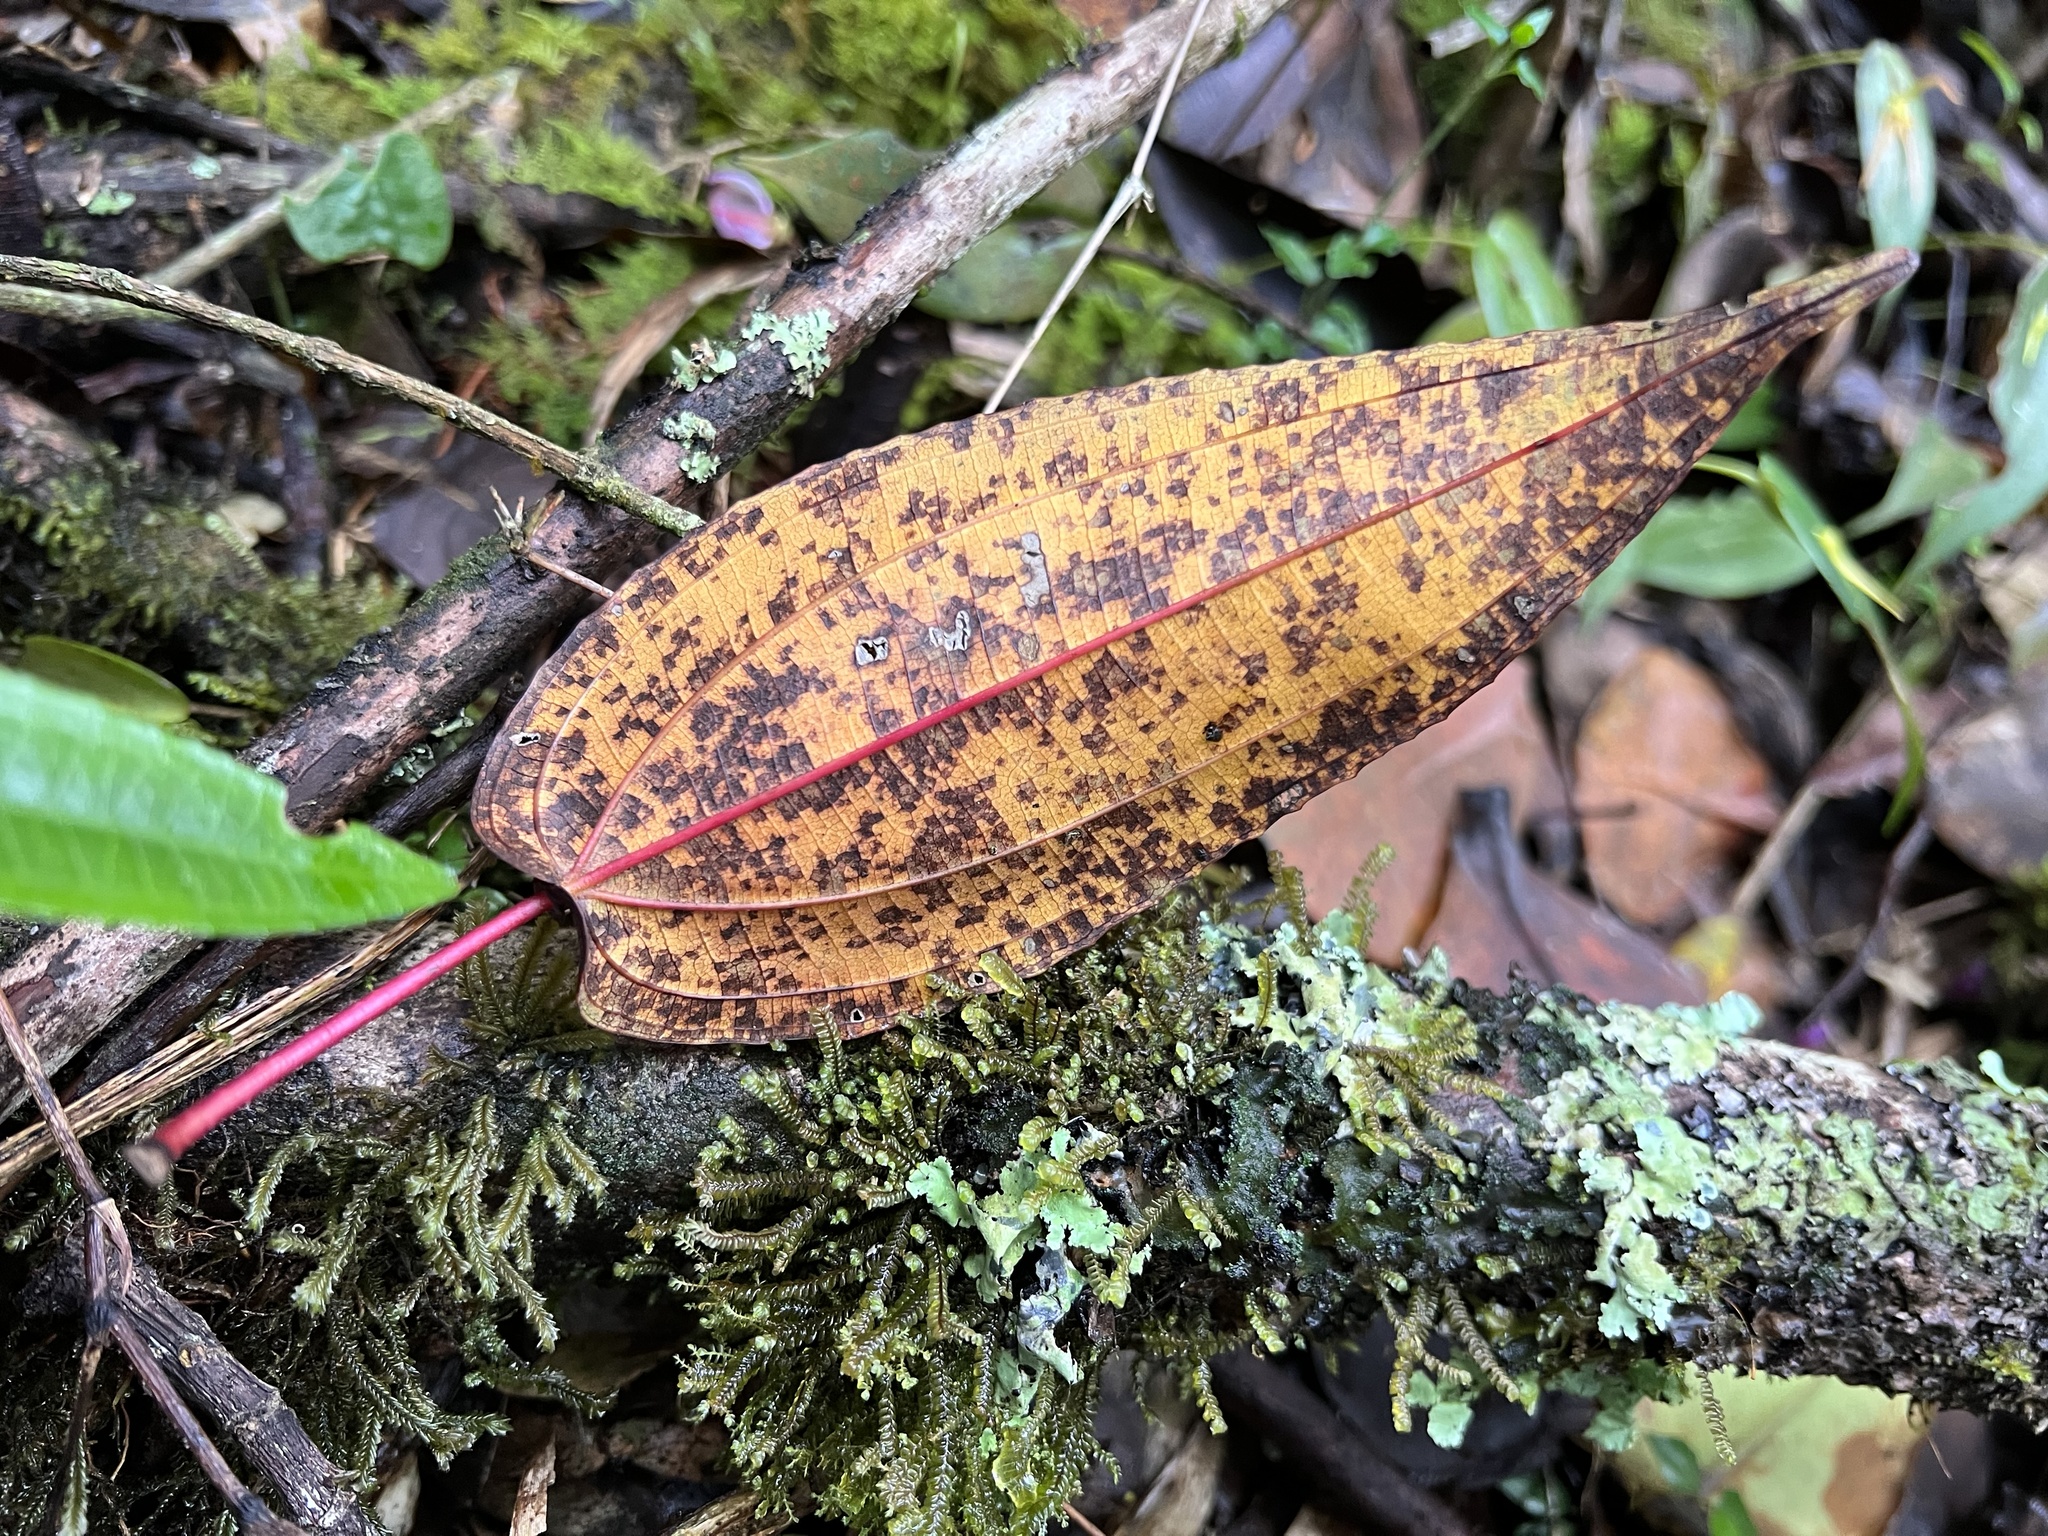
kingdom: Plantae
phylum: Tracheophyta
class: Magnoliopsida
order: Myrtales
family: Melastomataceae
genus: Axinaea
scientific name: Axinaea scutigera
